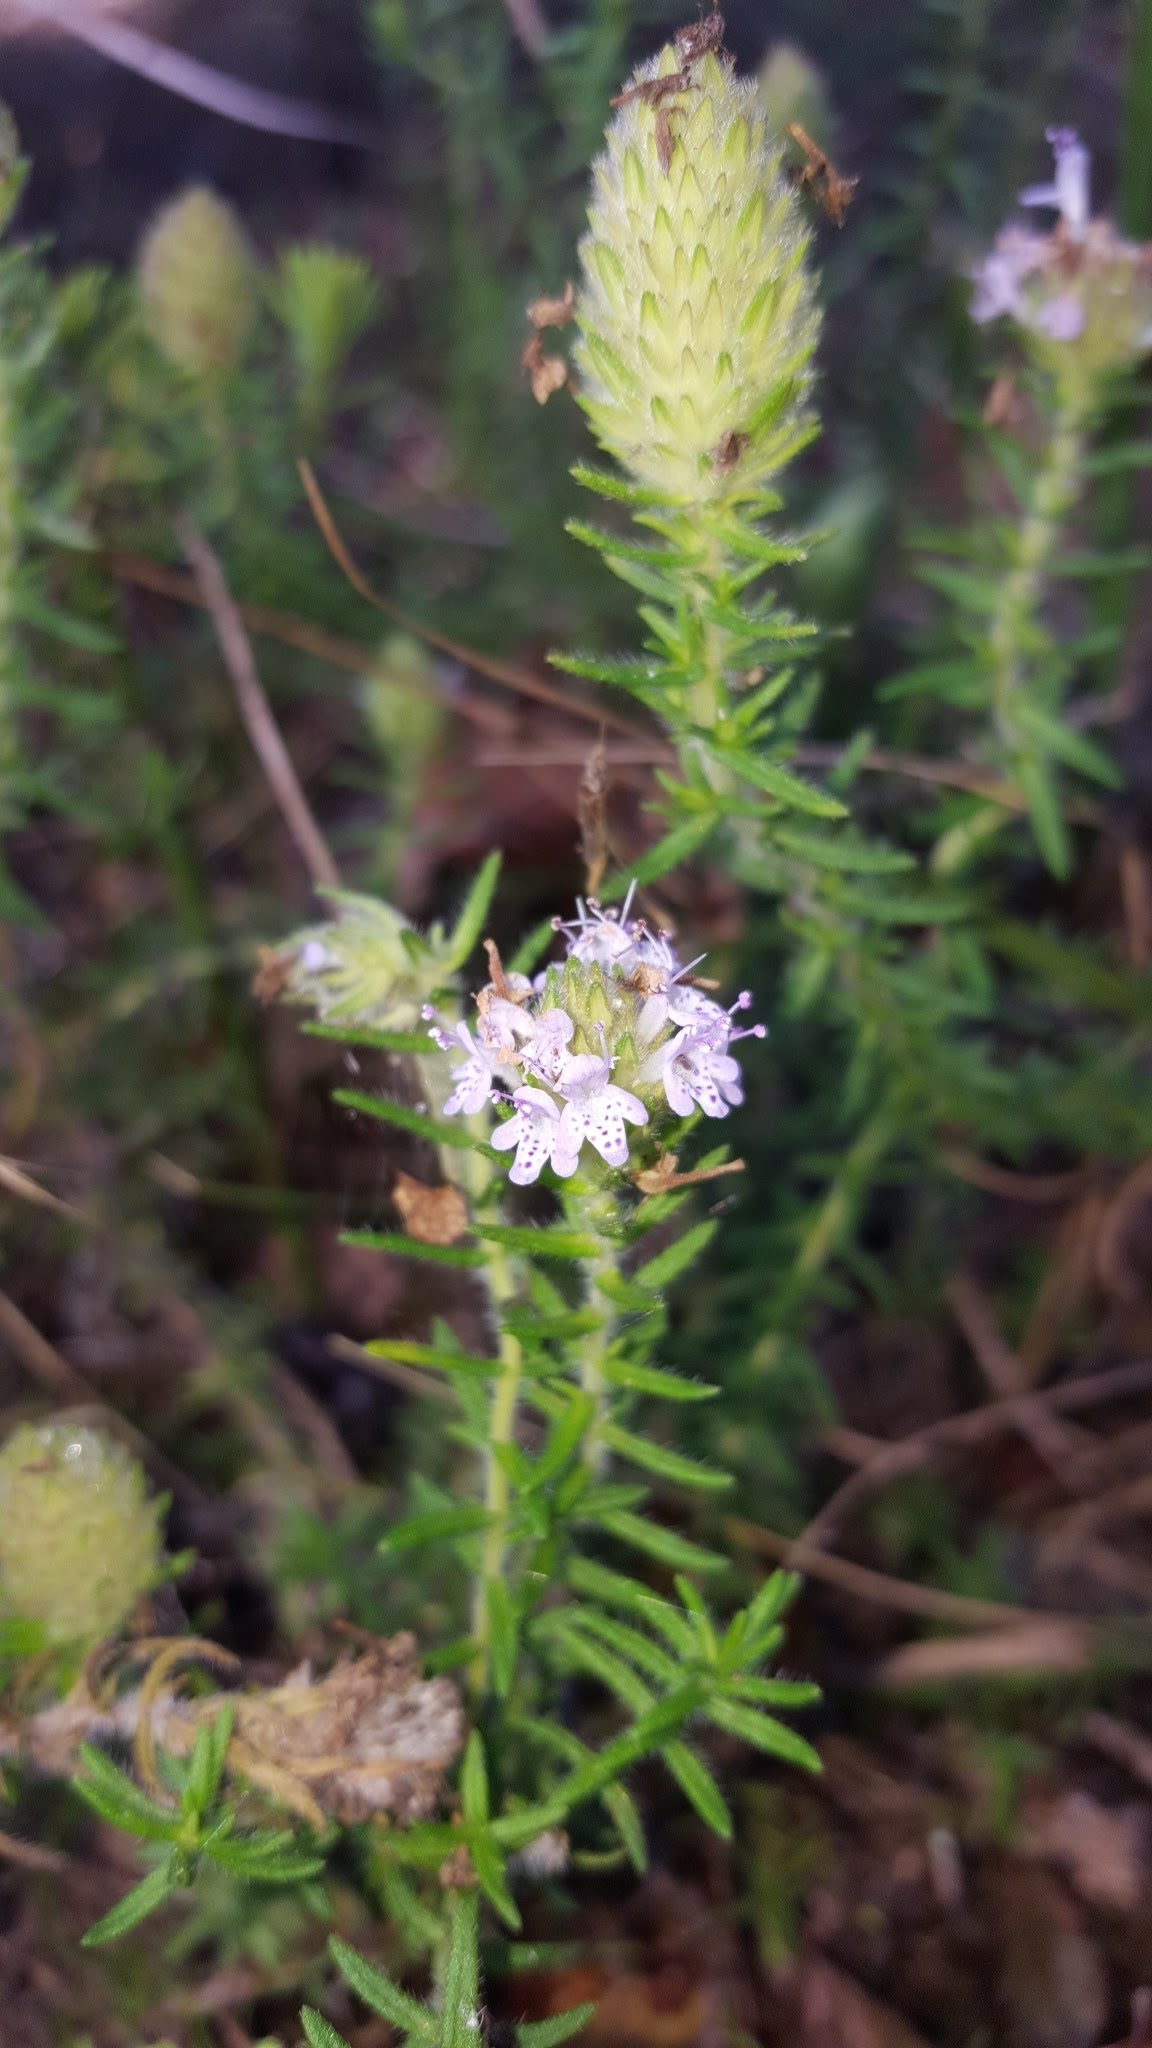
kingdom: Plantae
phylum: Tracheophyta
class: Magnoliopsida
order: Lamiales
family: Lamiaceae
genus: Piloblephis
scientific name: Piloblephis rigida
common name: Wild pennyroyal
